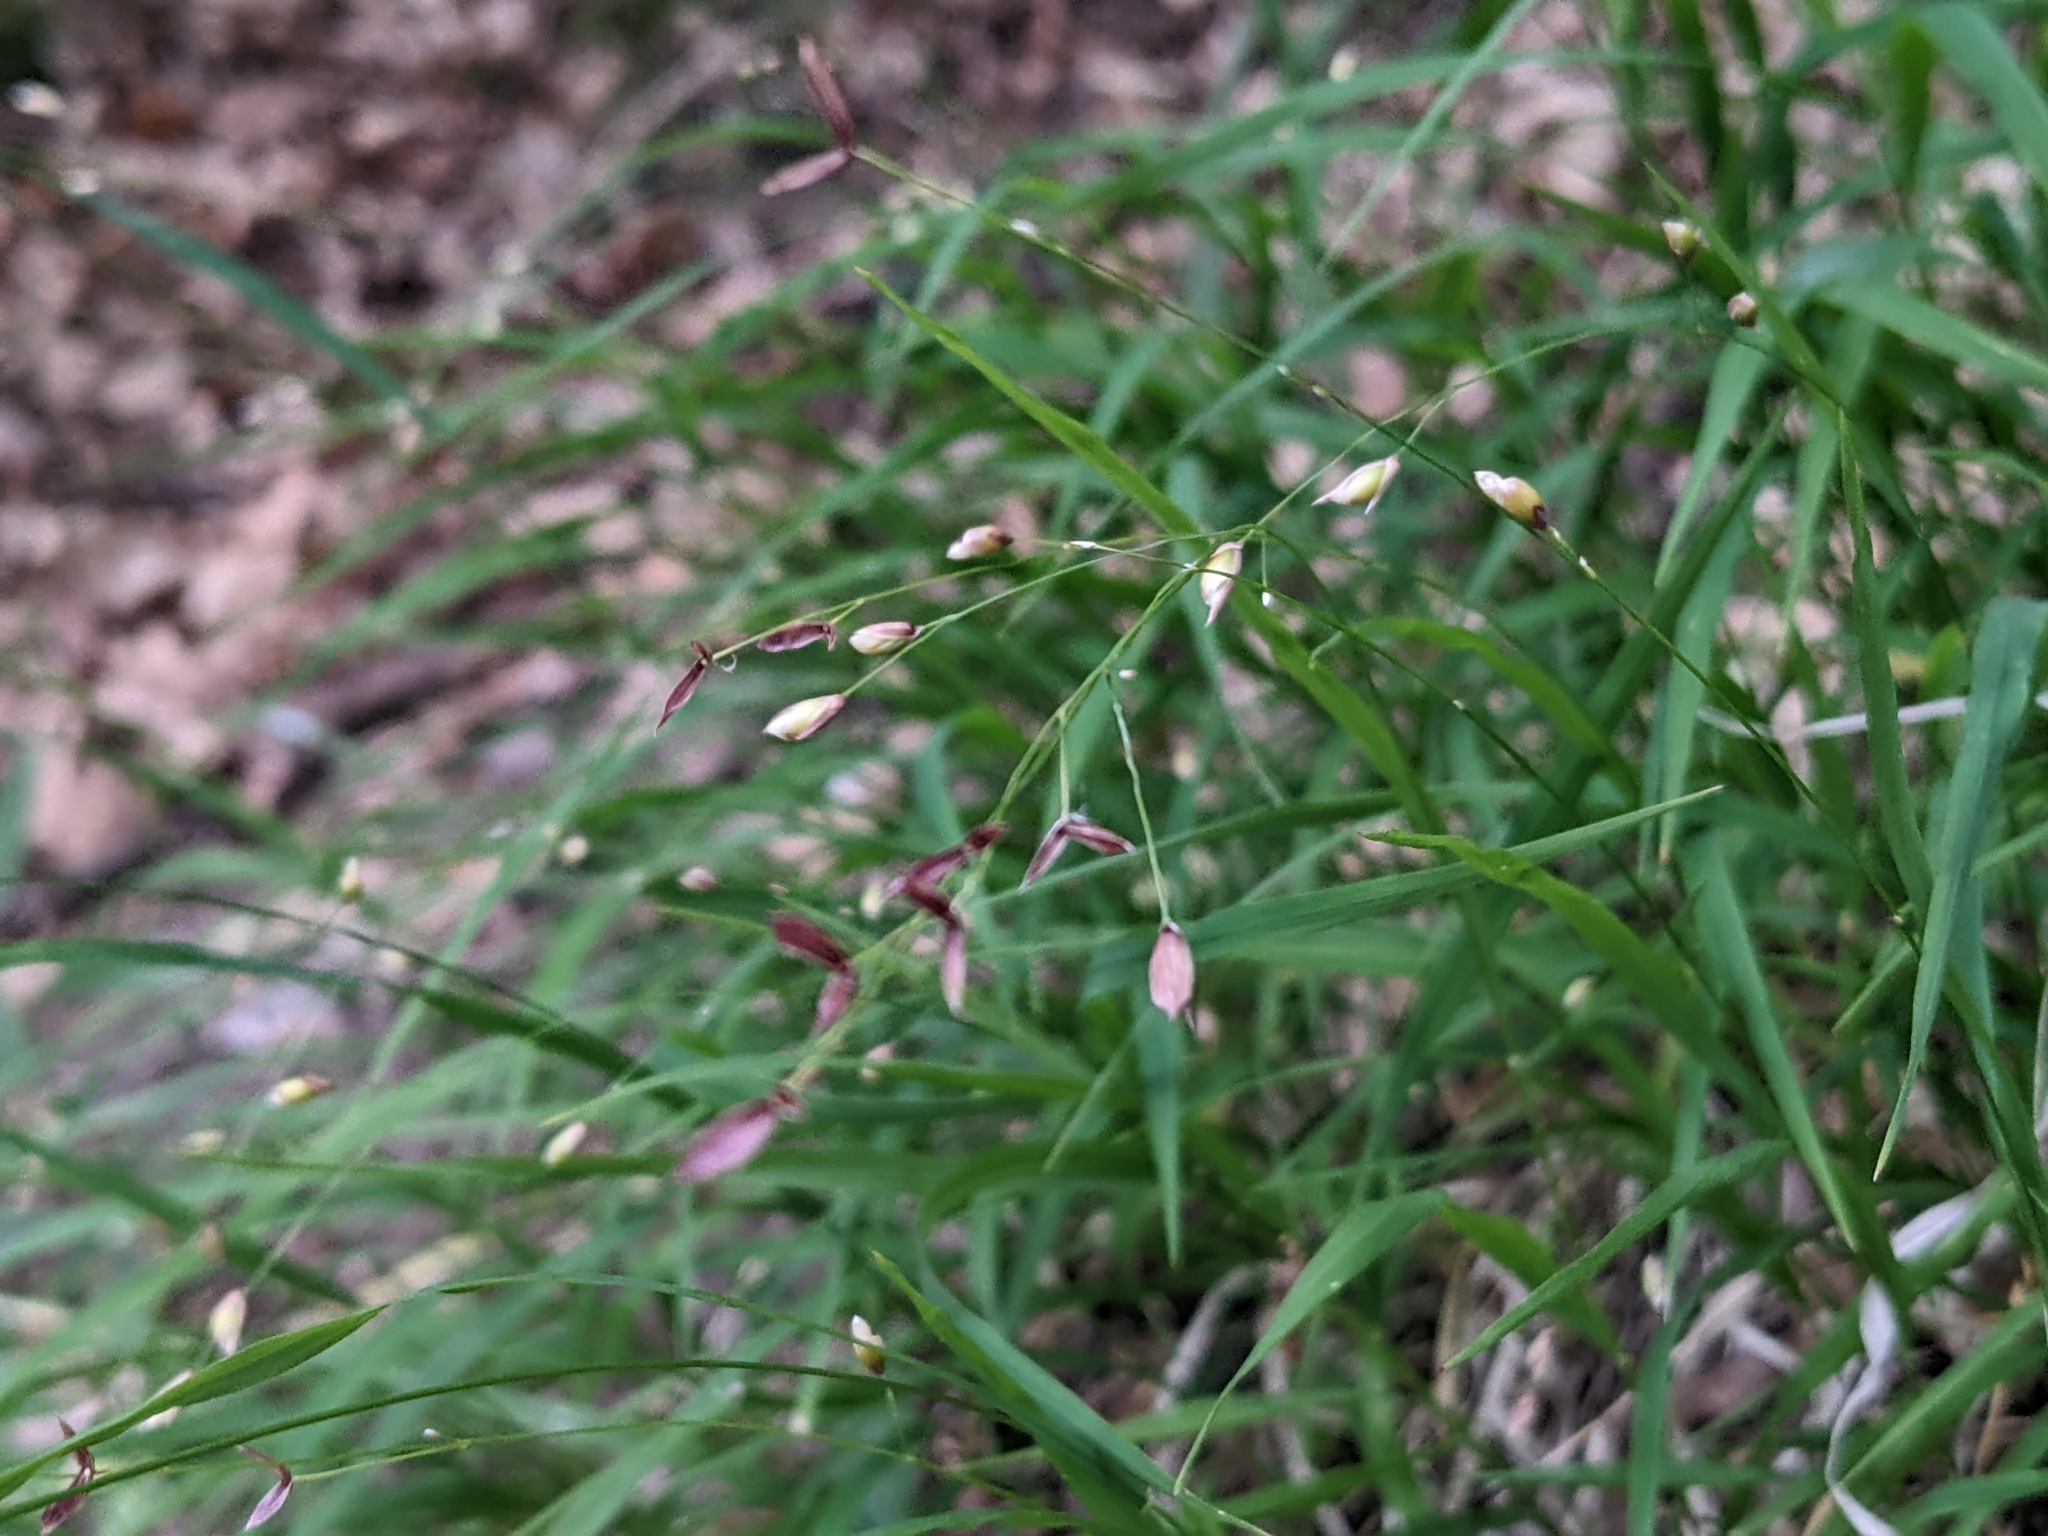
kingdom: Plantae
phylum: Tracheophyta
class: Liliopsida
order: Poales
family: Poaceae
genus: Melica
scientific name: Melica uniflora
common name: Wood melick
